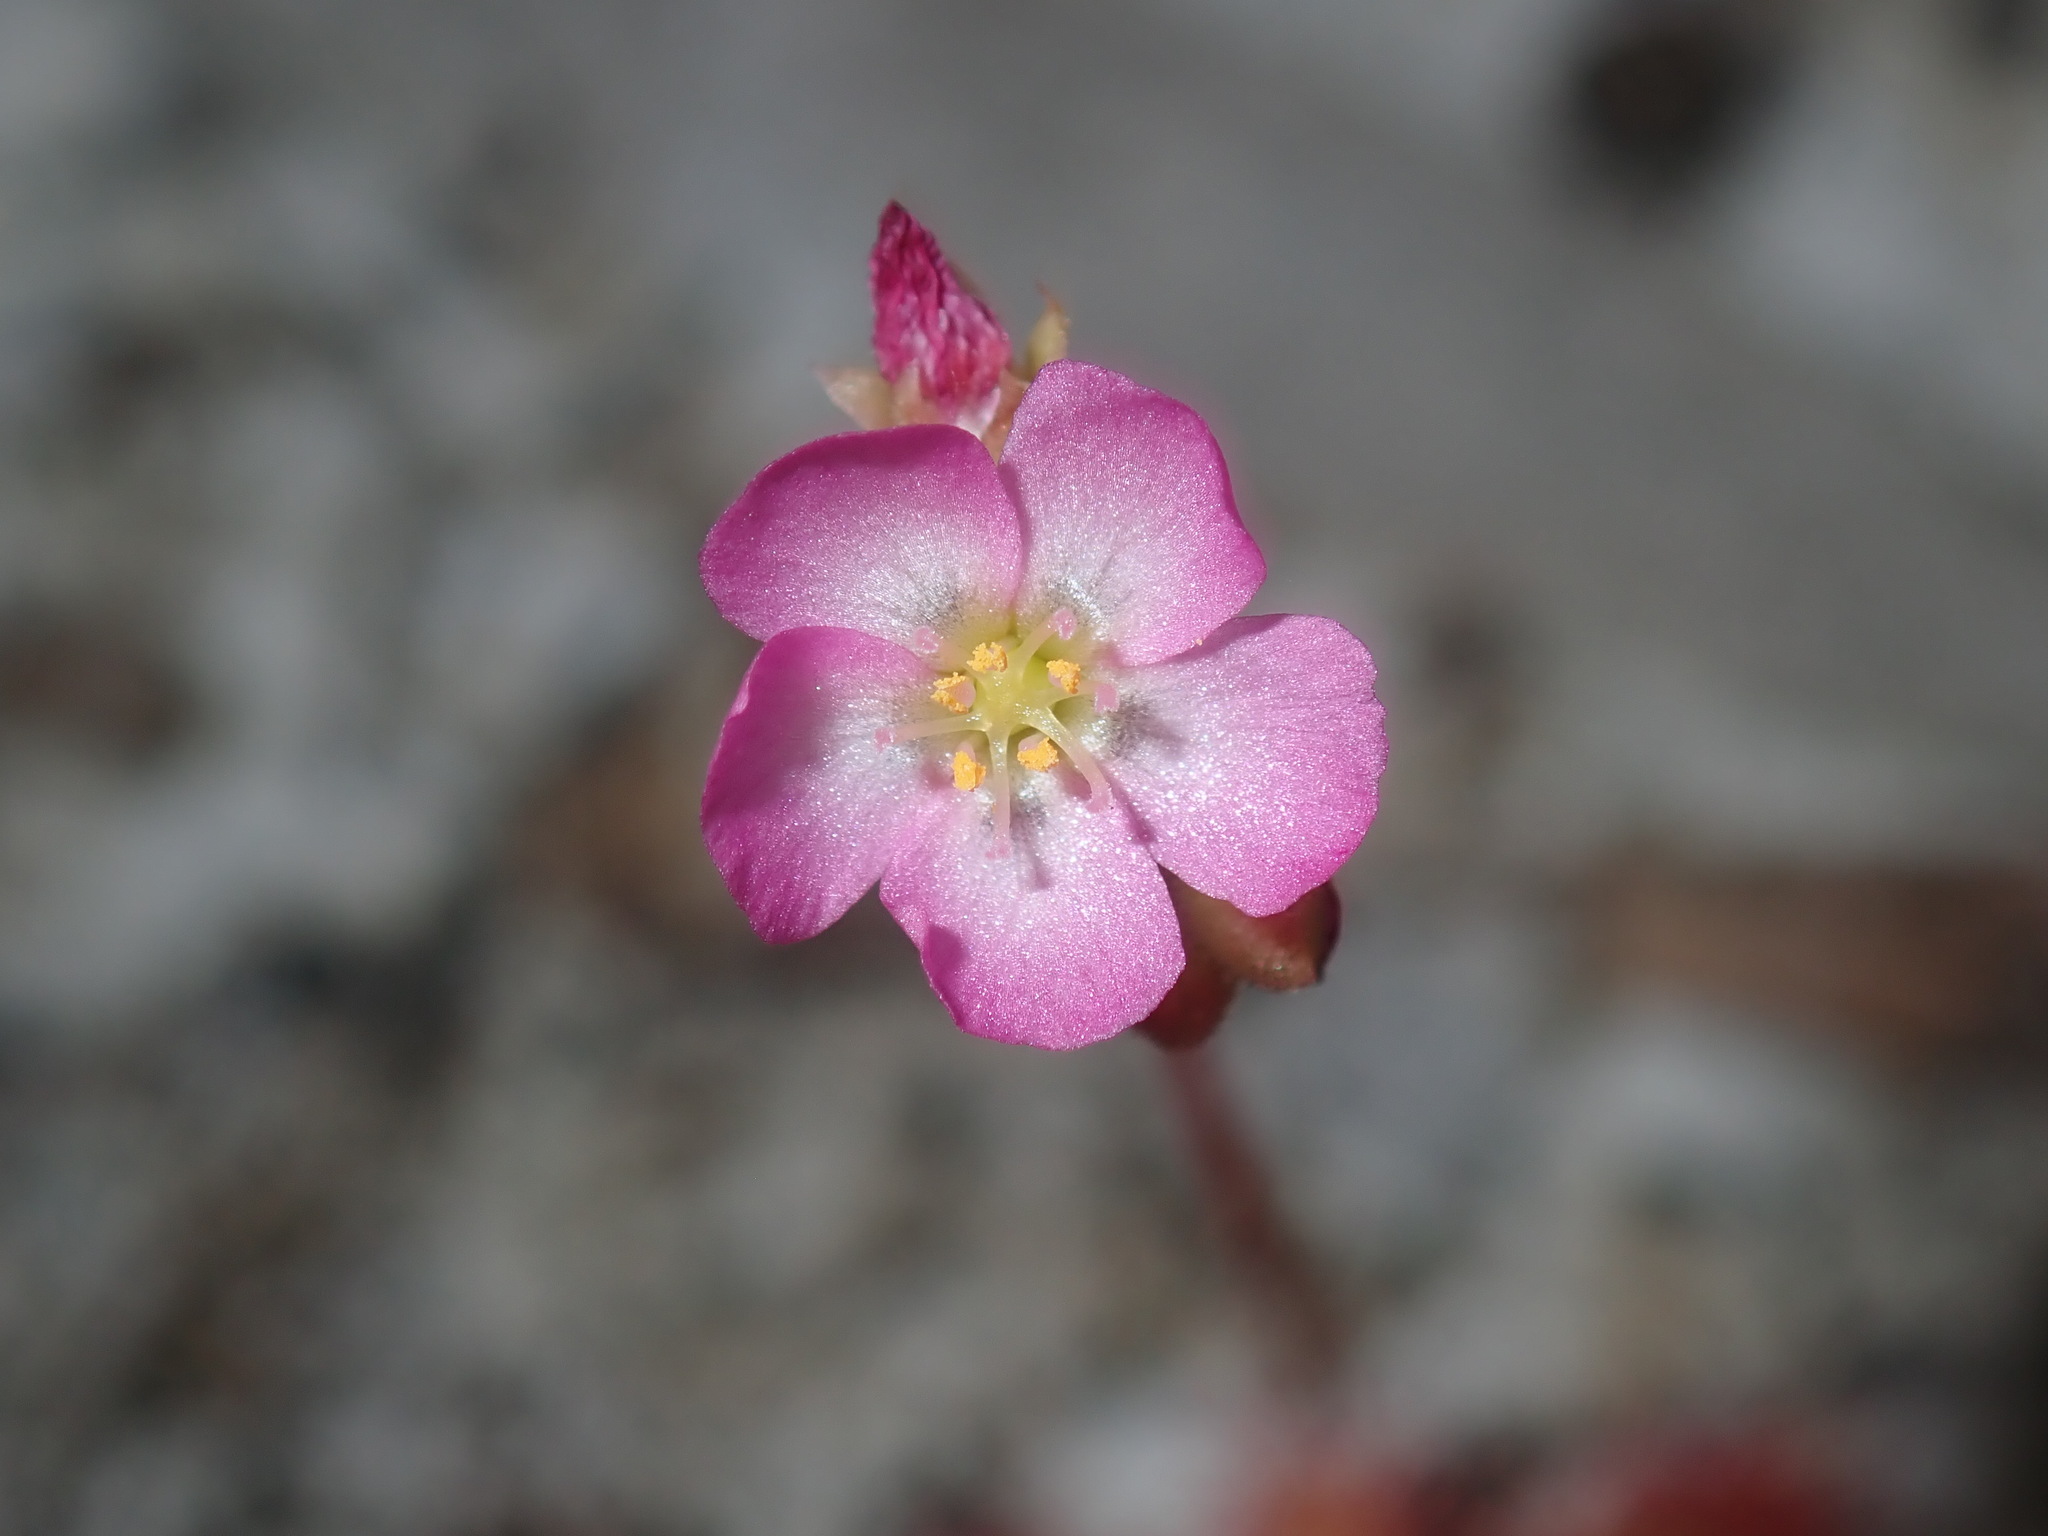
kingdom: Plantae
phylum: Tracheophyta
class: Magnoliopsida
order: Caryophyllales
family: Droseraceae
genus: Drosera
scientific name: Drosera spatulata
